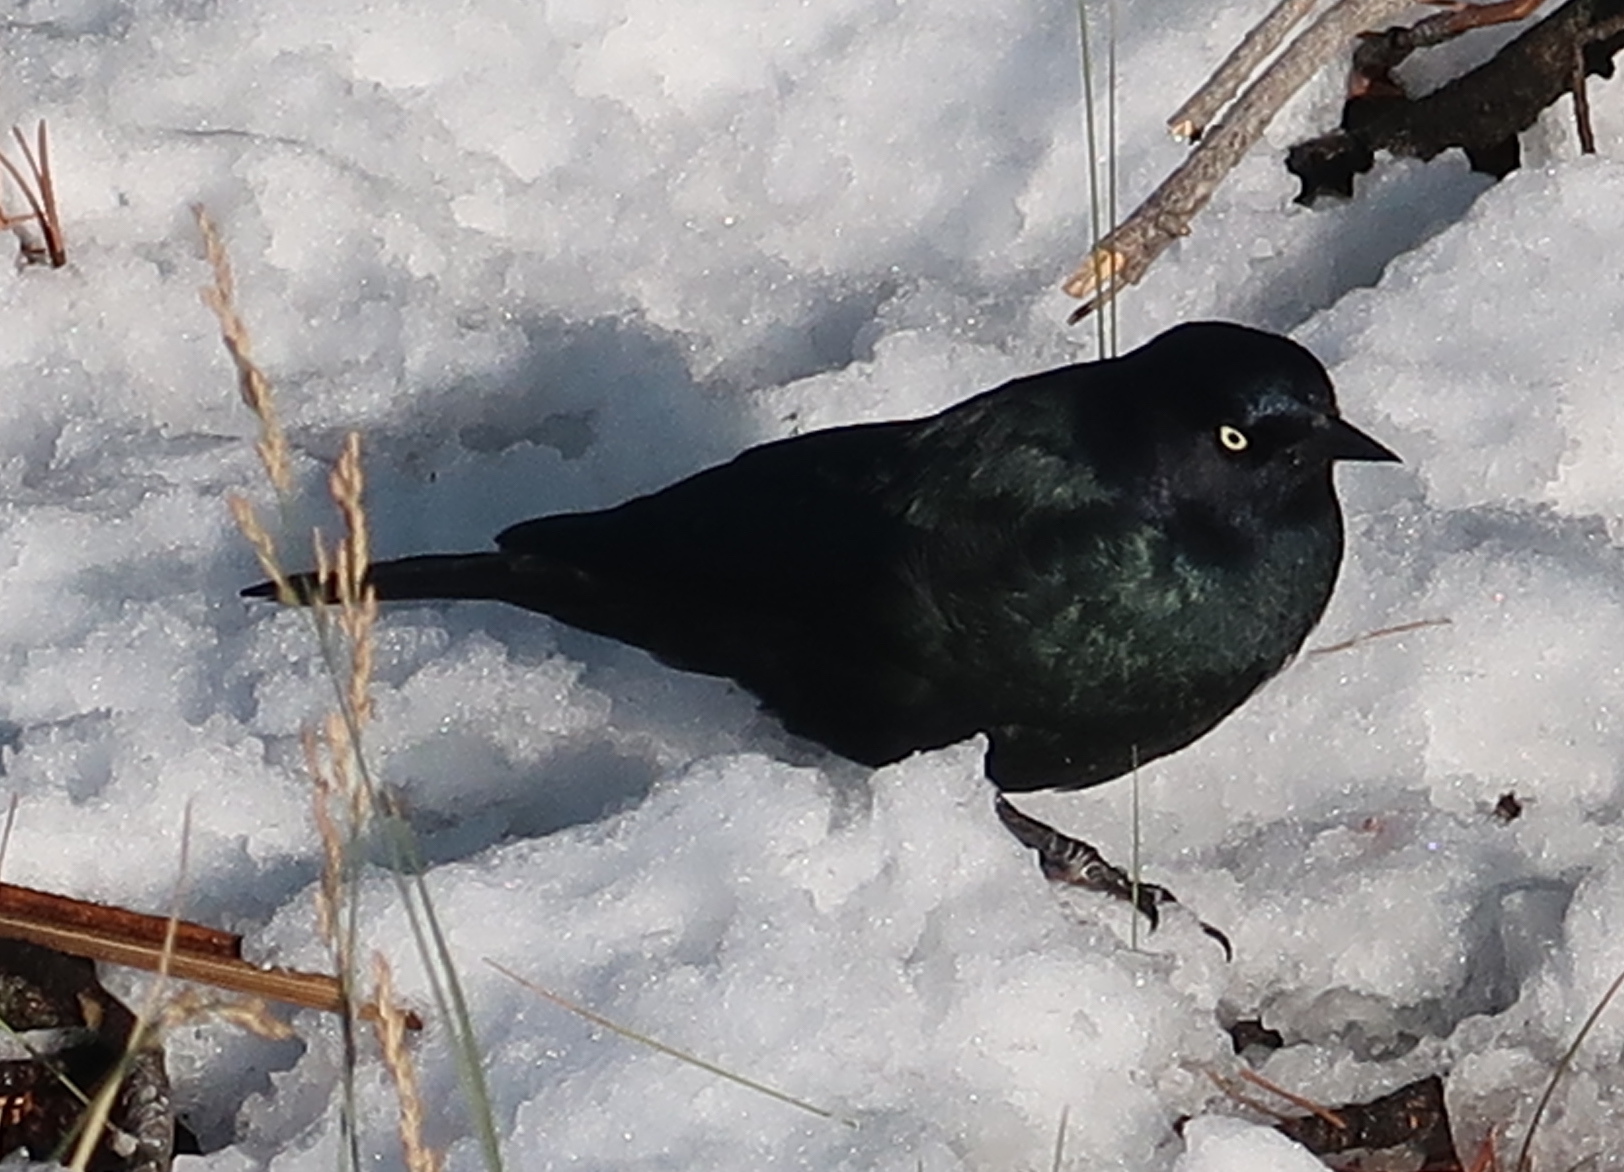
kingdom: Animalia
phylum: Chordata
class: Aves
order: Passeriformes
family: Icteridae
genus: Euphagus
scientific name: Euphagus cyanocephalus
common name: Brewer's blackbird
